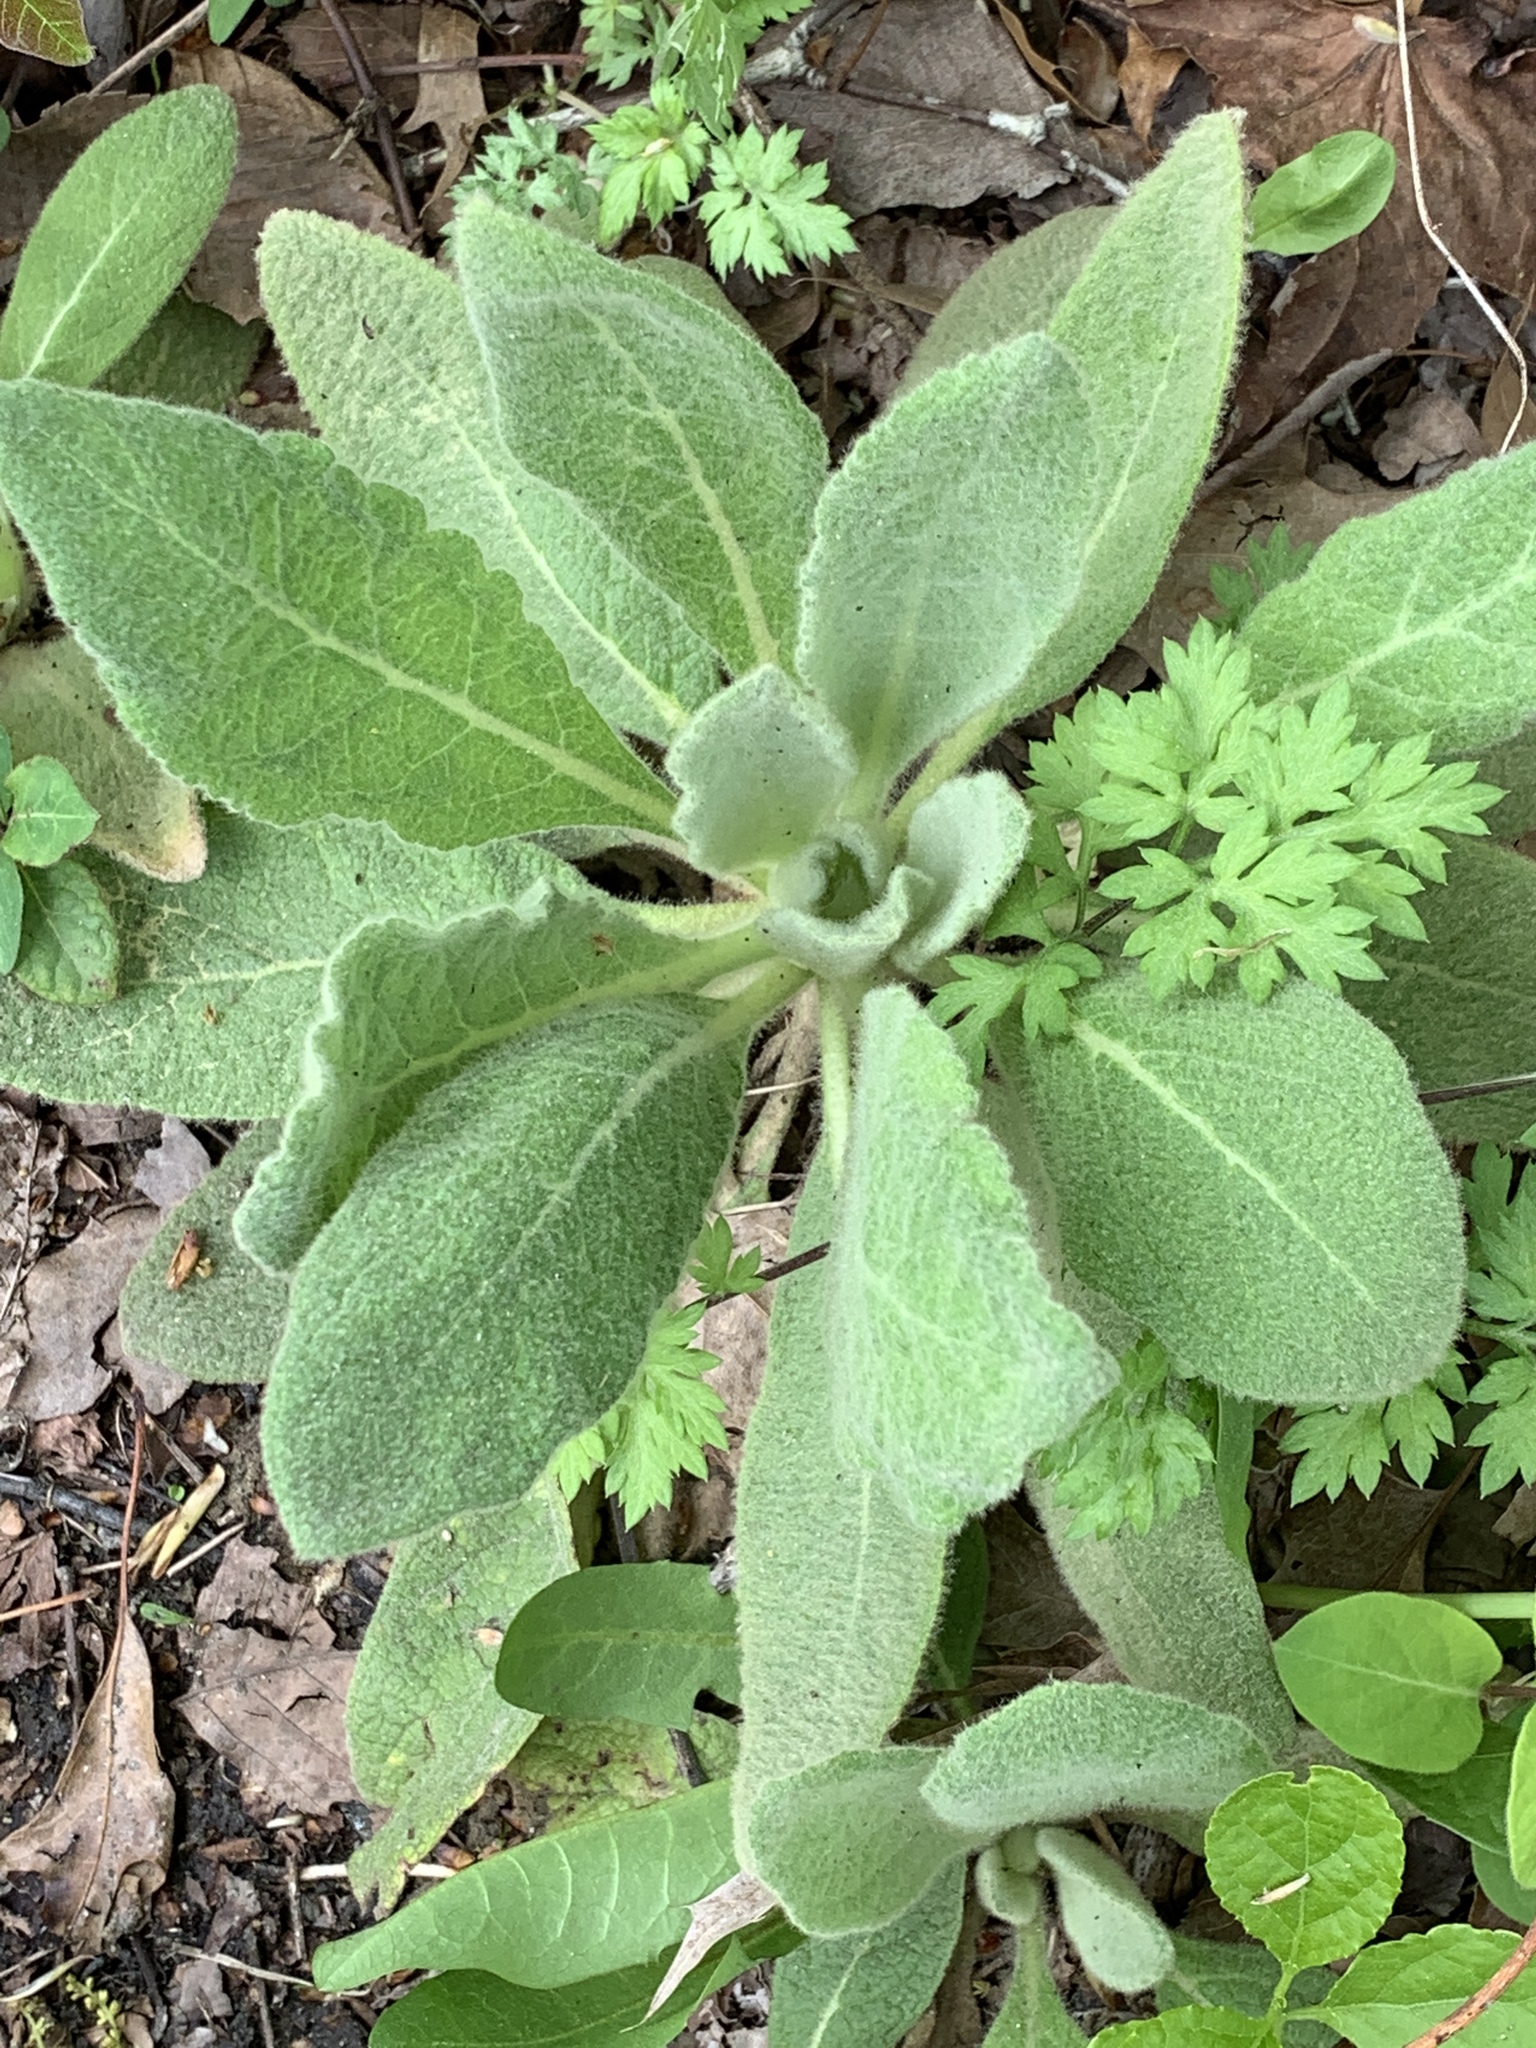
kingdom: Plantae
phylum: Tracheophyta
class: Magnoliopsida
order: Lamiales
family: Scrophulariaceae
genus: Verbascum
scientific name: Verbascum thapsus
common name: Common mullein
